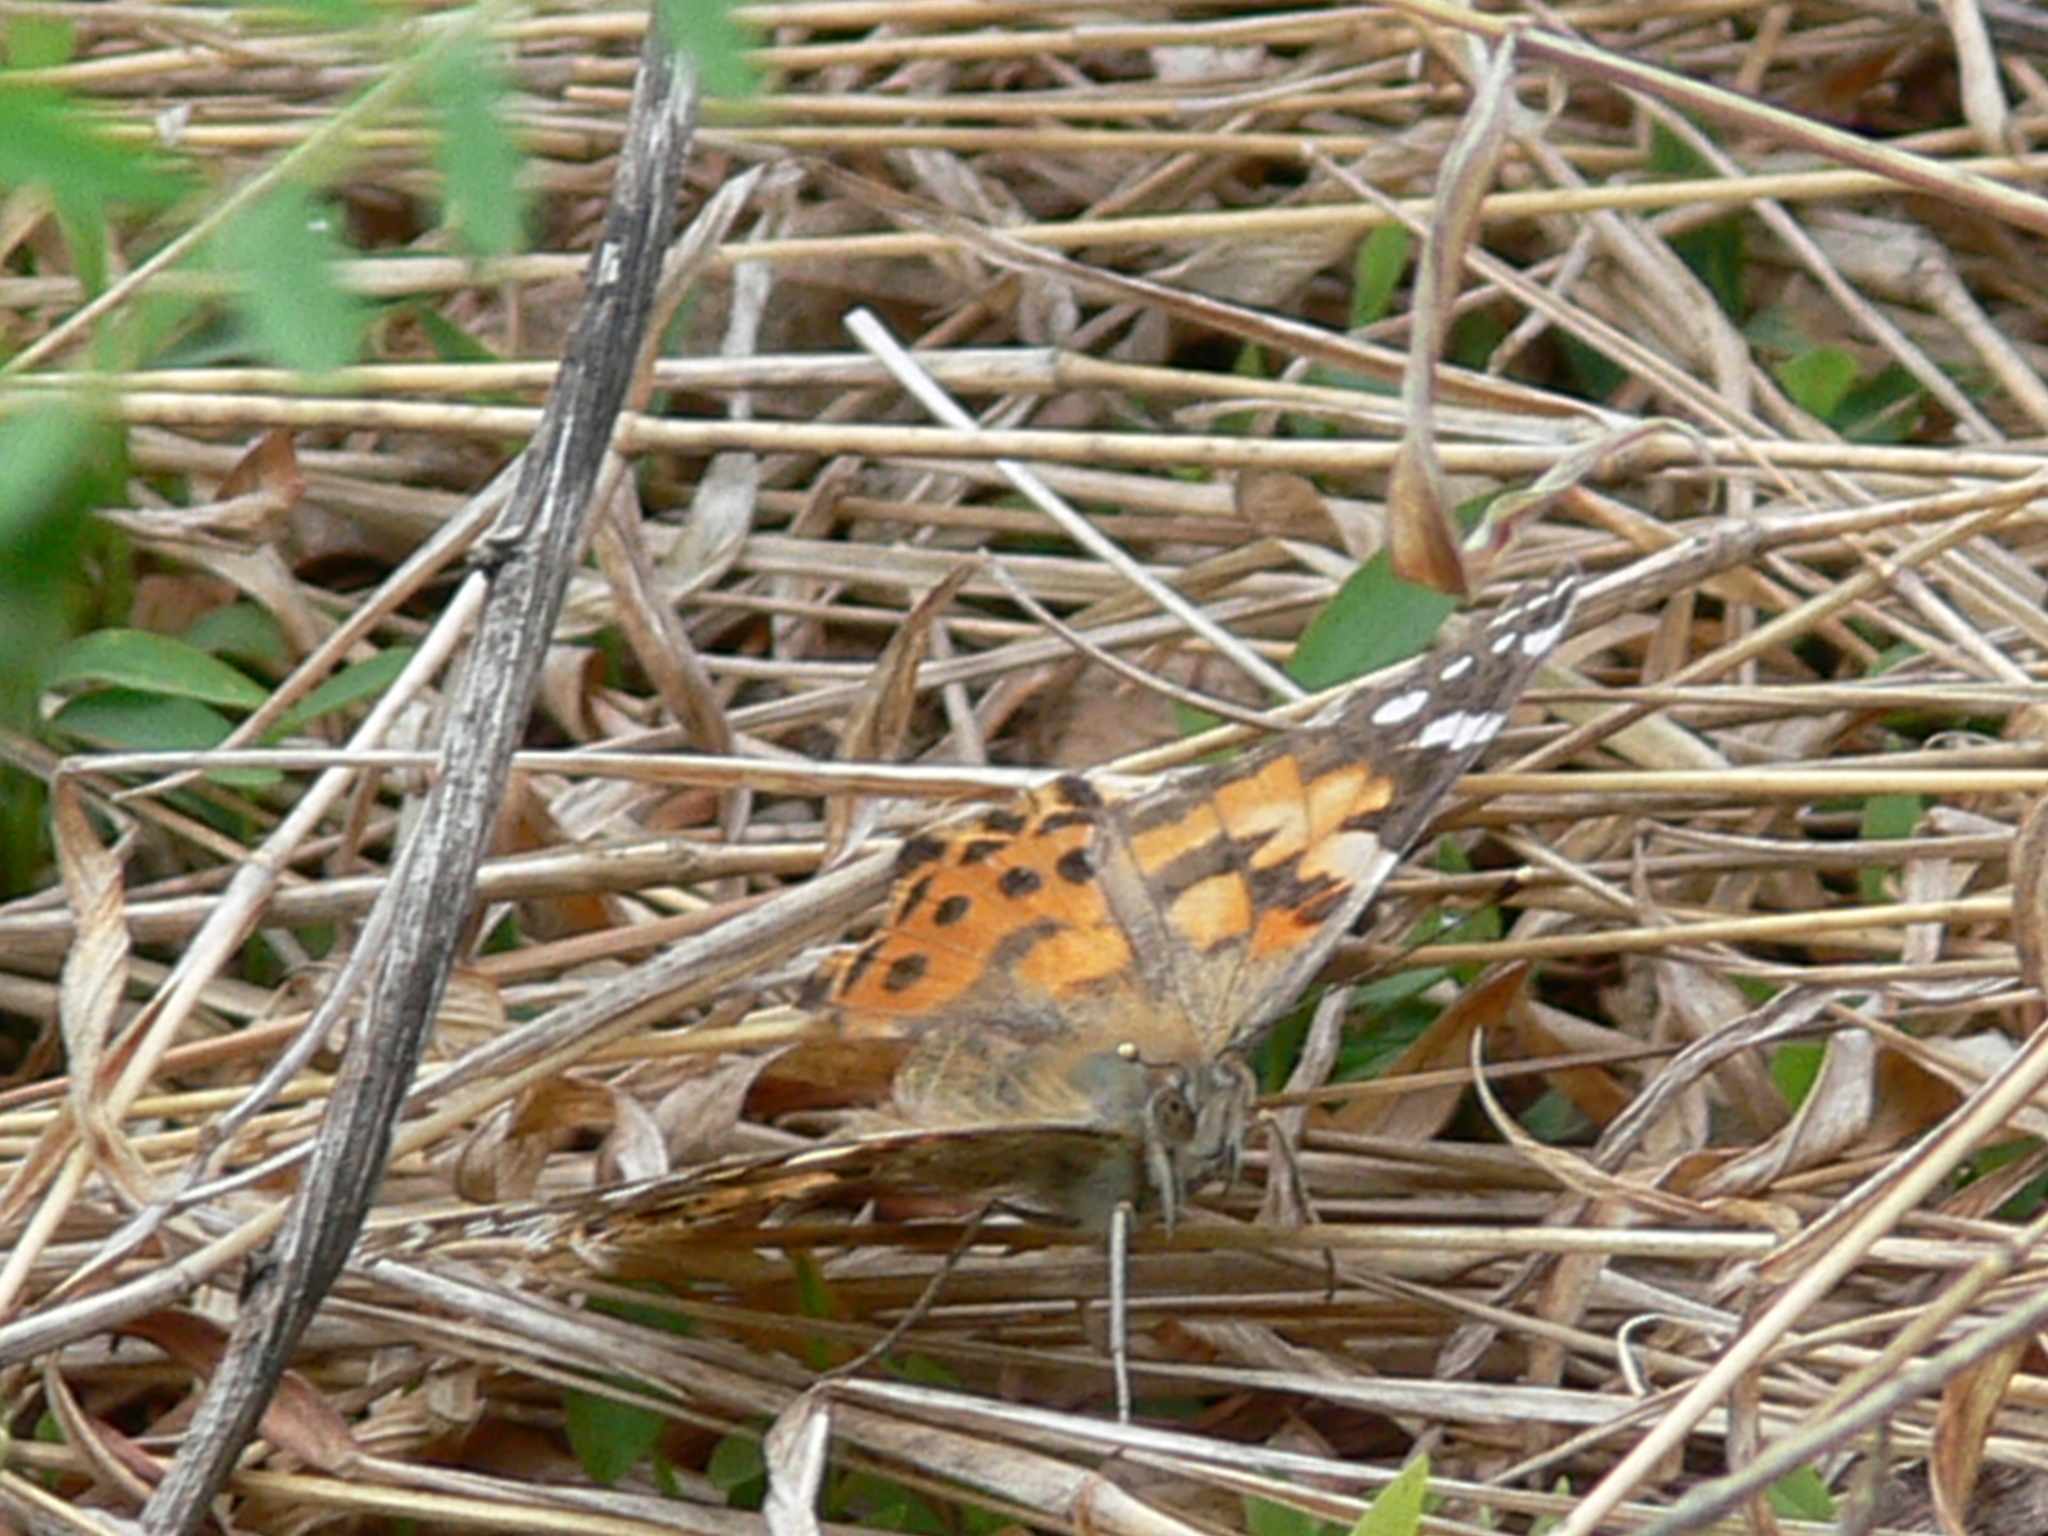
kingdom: Animalia
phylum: Arthropoda
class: Insecta
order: Lepidoptera
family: Nymphalidae
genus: Vanessa
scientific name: Vanessa cardui
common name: Painted lady
